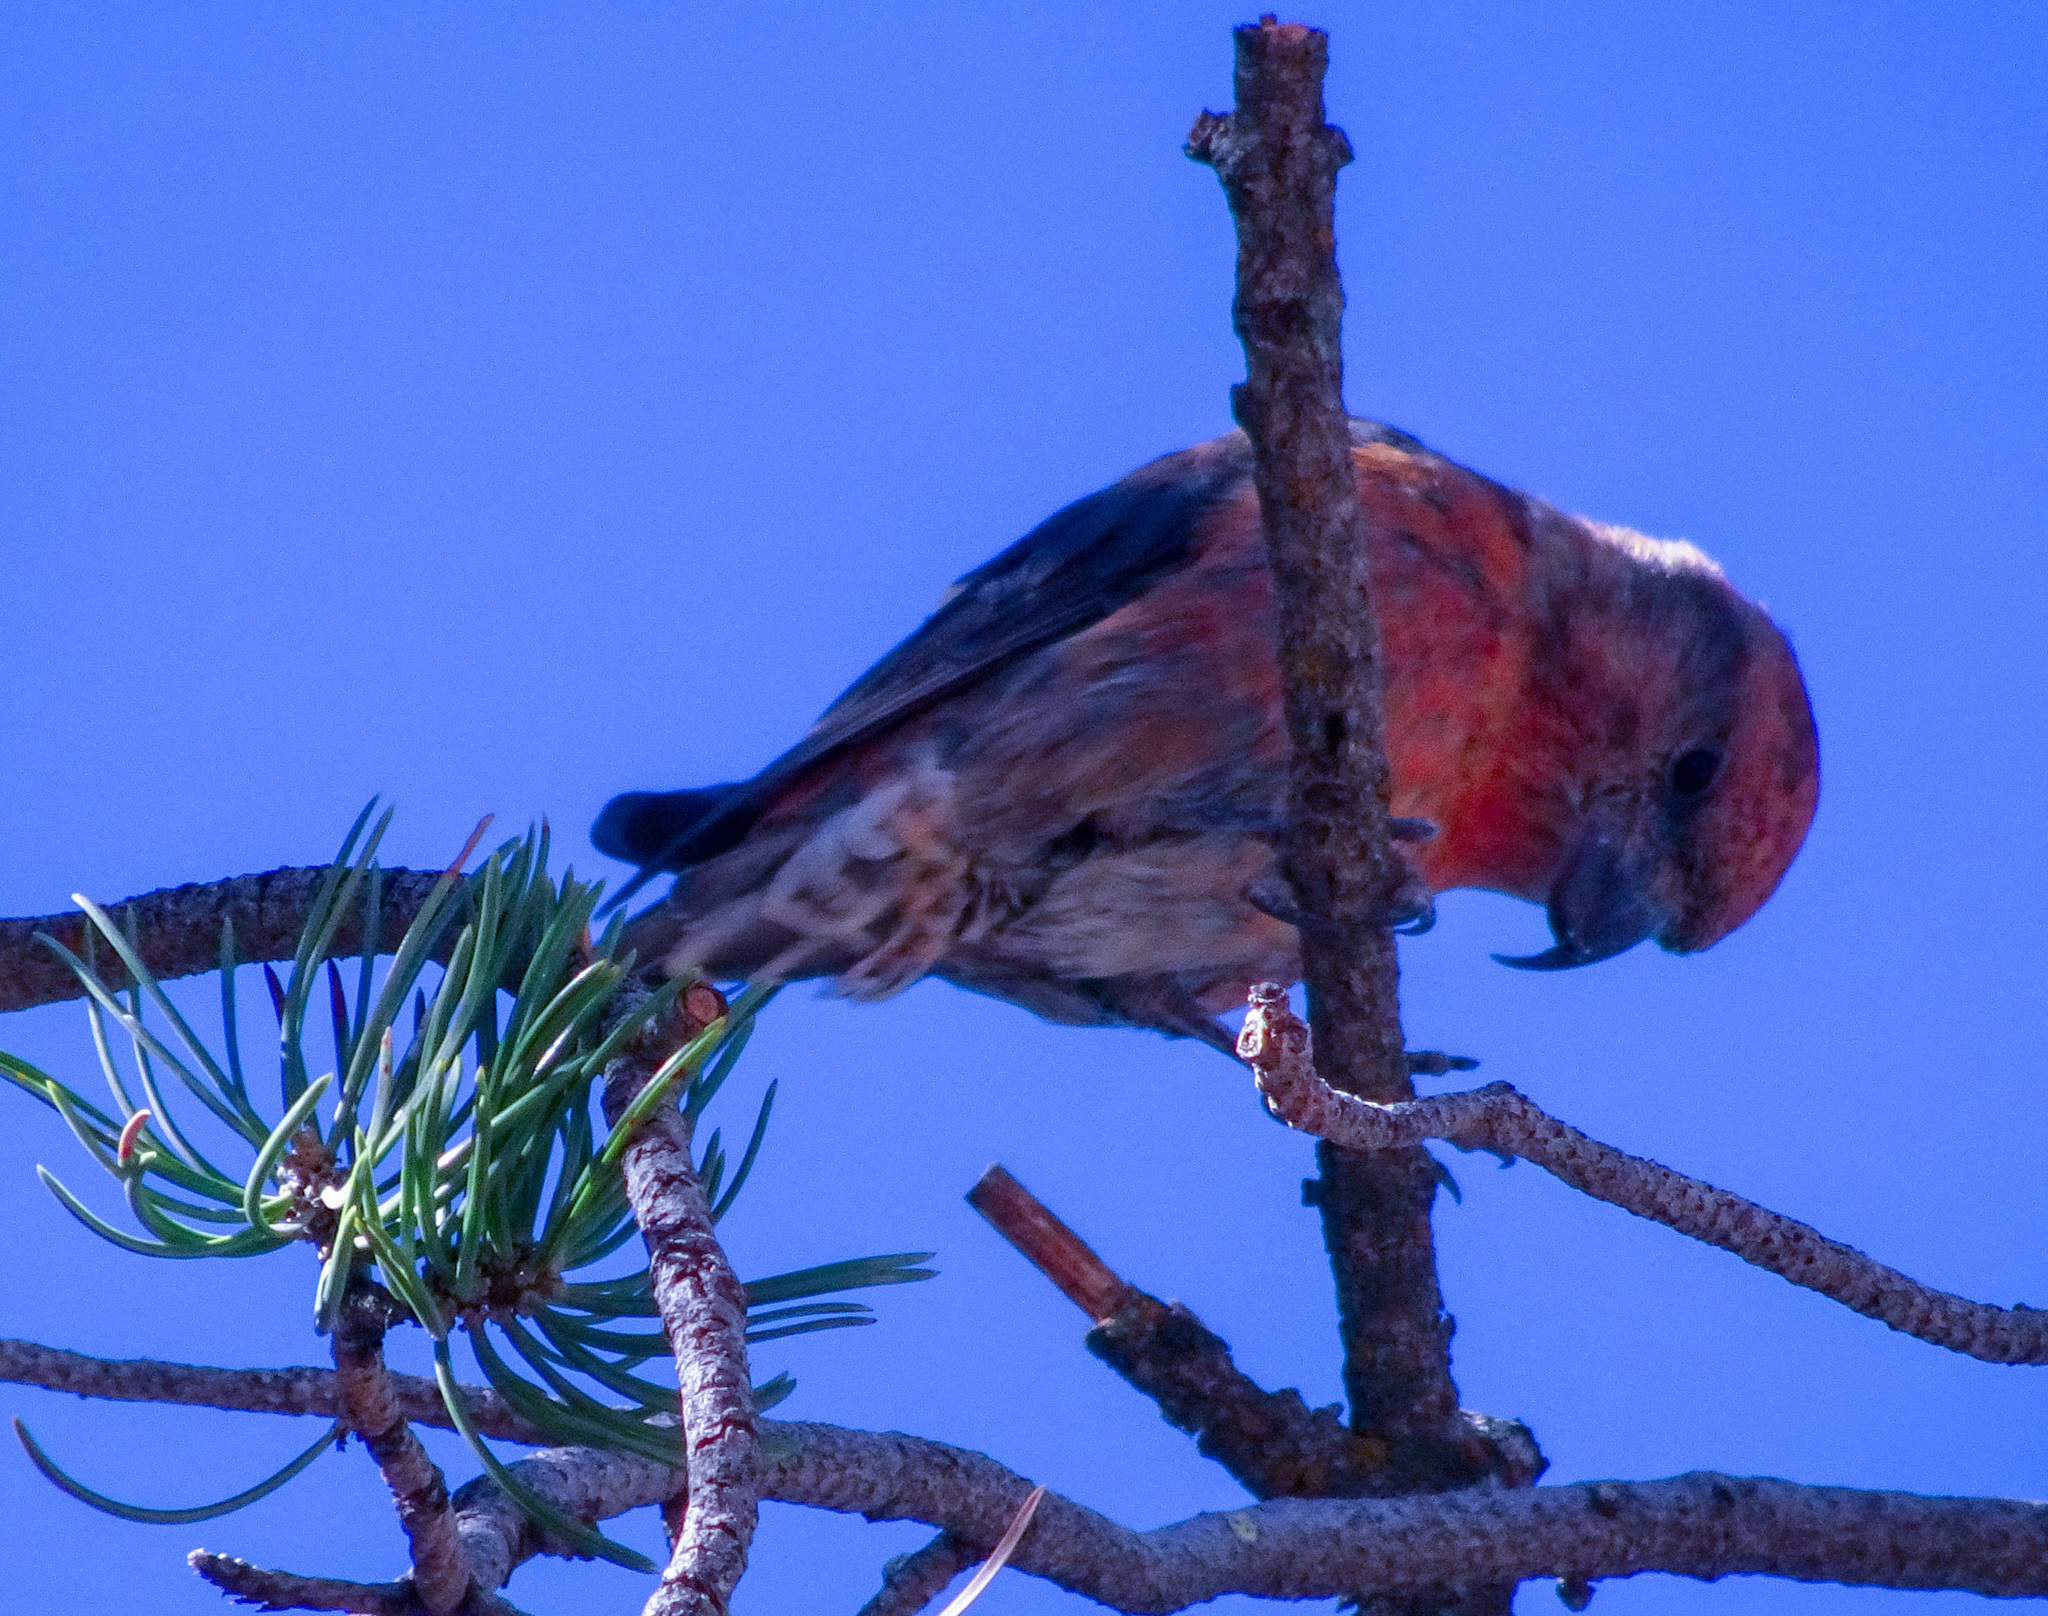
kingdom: Animalia
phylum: Chordata
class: Aves
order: Passeriformes
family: Fringillidae
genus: Loxia
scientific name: Loxia curvirostra
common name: Red crossbill
